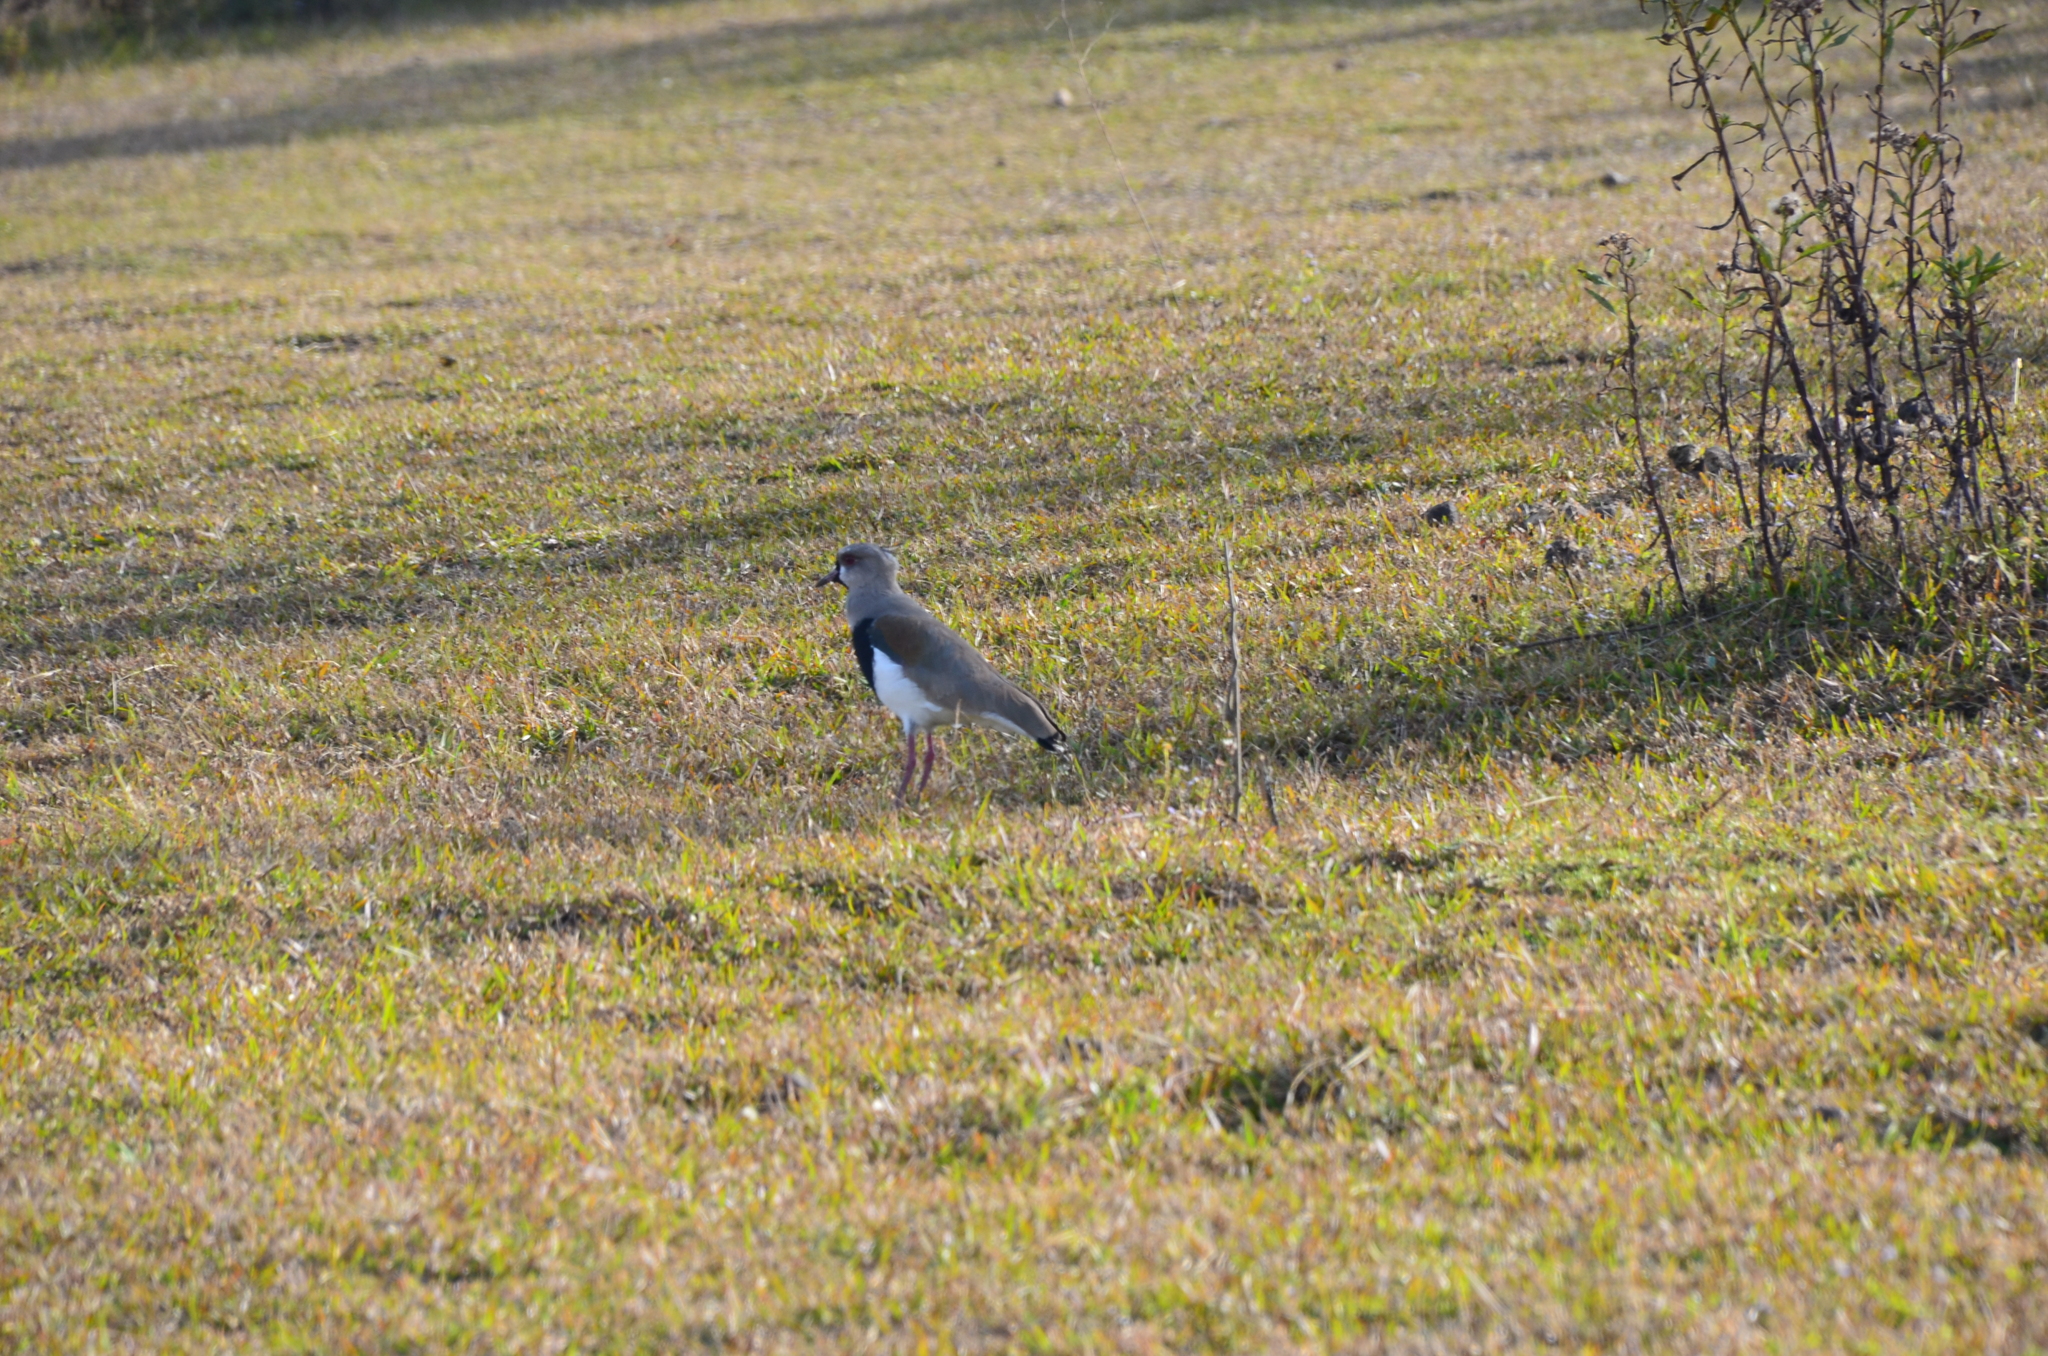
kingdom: Animalia
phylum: Chordata
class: Aves
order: Charadriiformes
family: Charadriidae
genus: Vanellus
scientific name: Vanellus chilensis
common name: Southern lapwing
